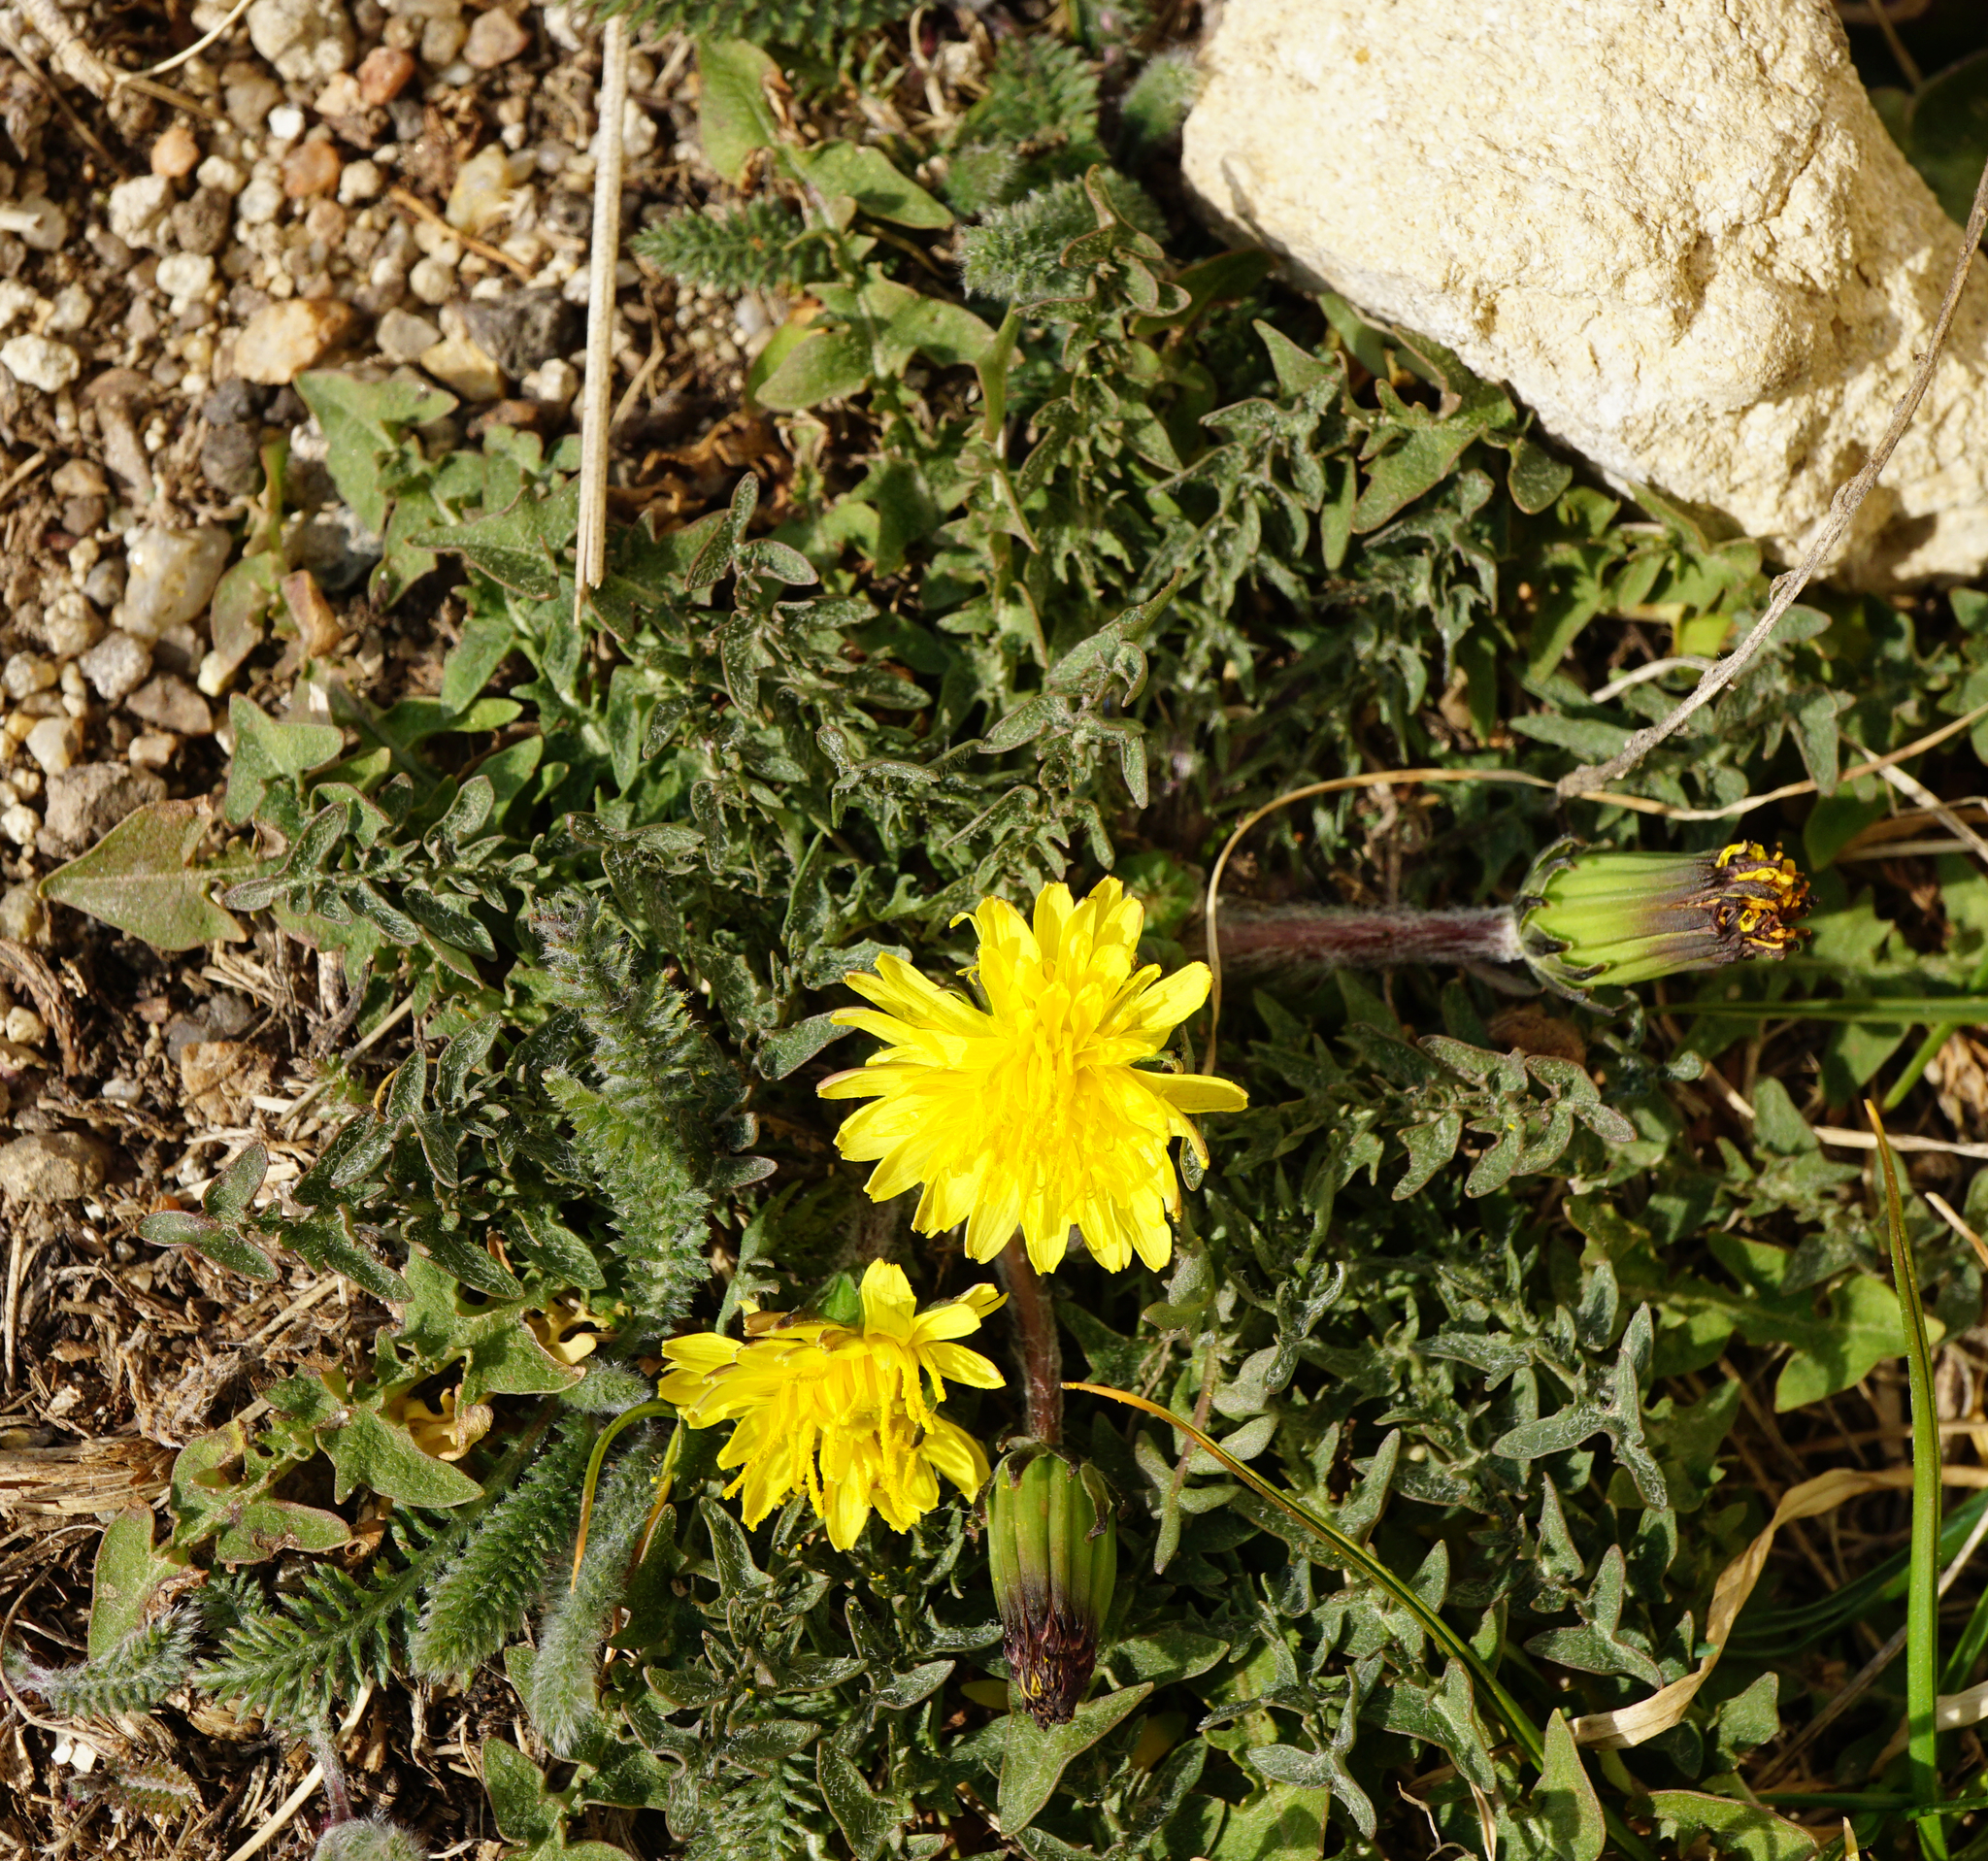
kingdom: Plantae
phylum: Tracheophyta
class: Magnoliopsida
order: Asterales
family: Asteraceae
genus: Taraxacum
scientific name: Taraxacum
